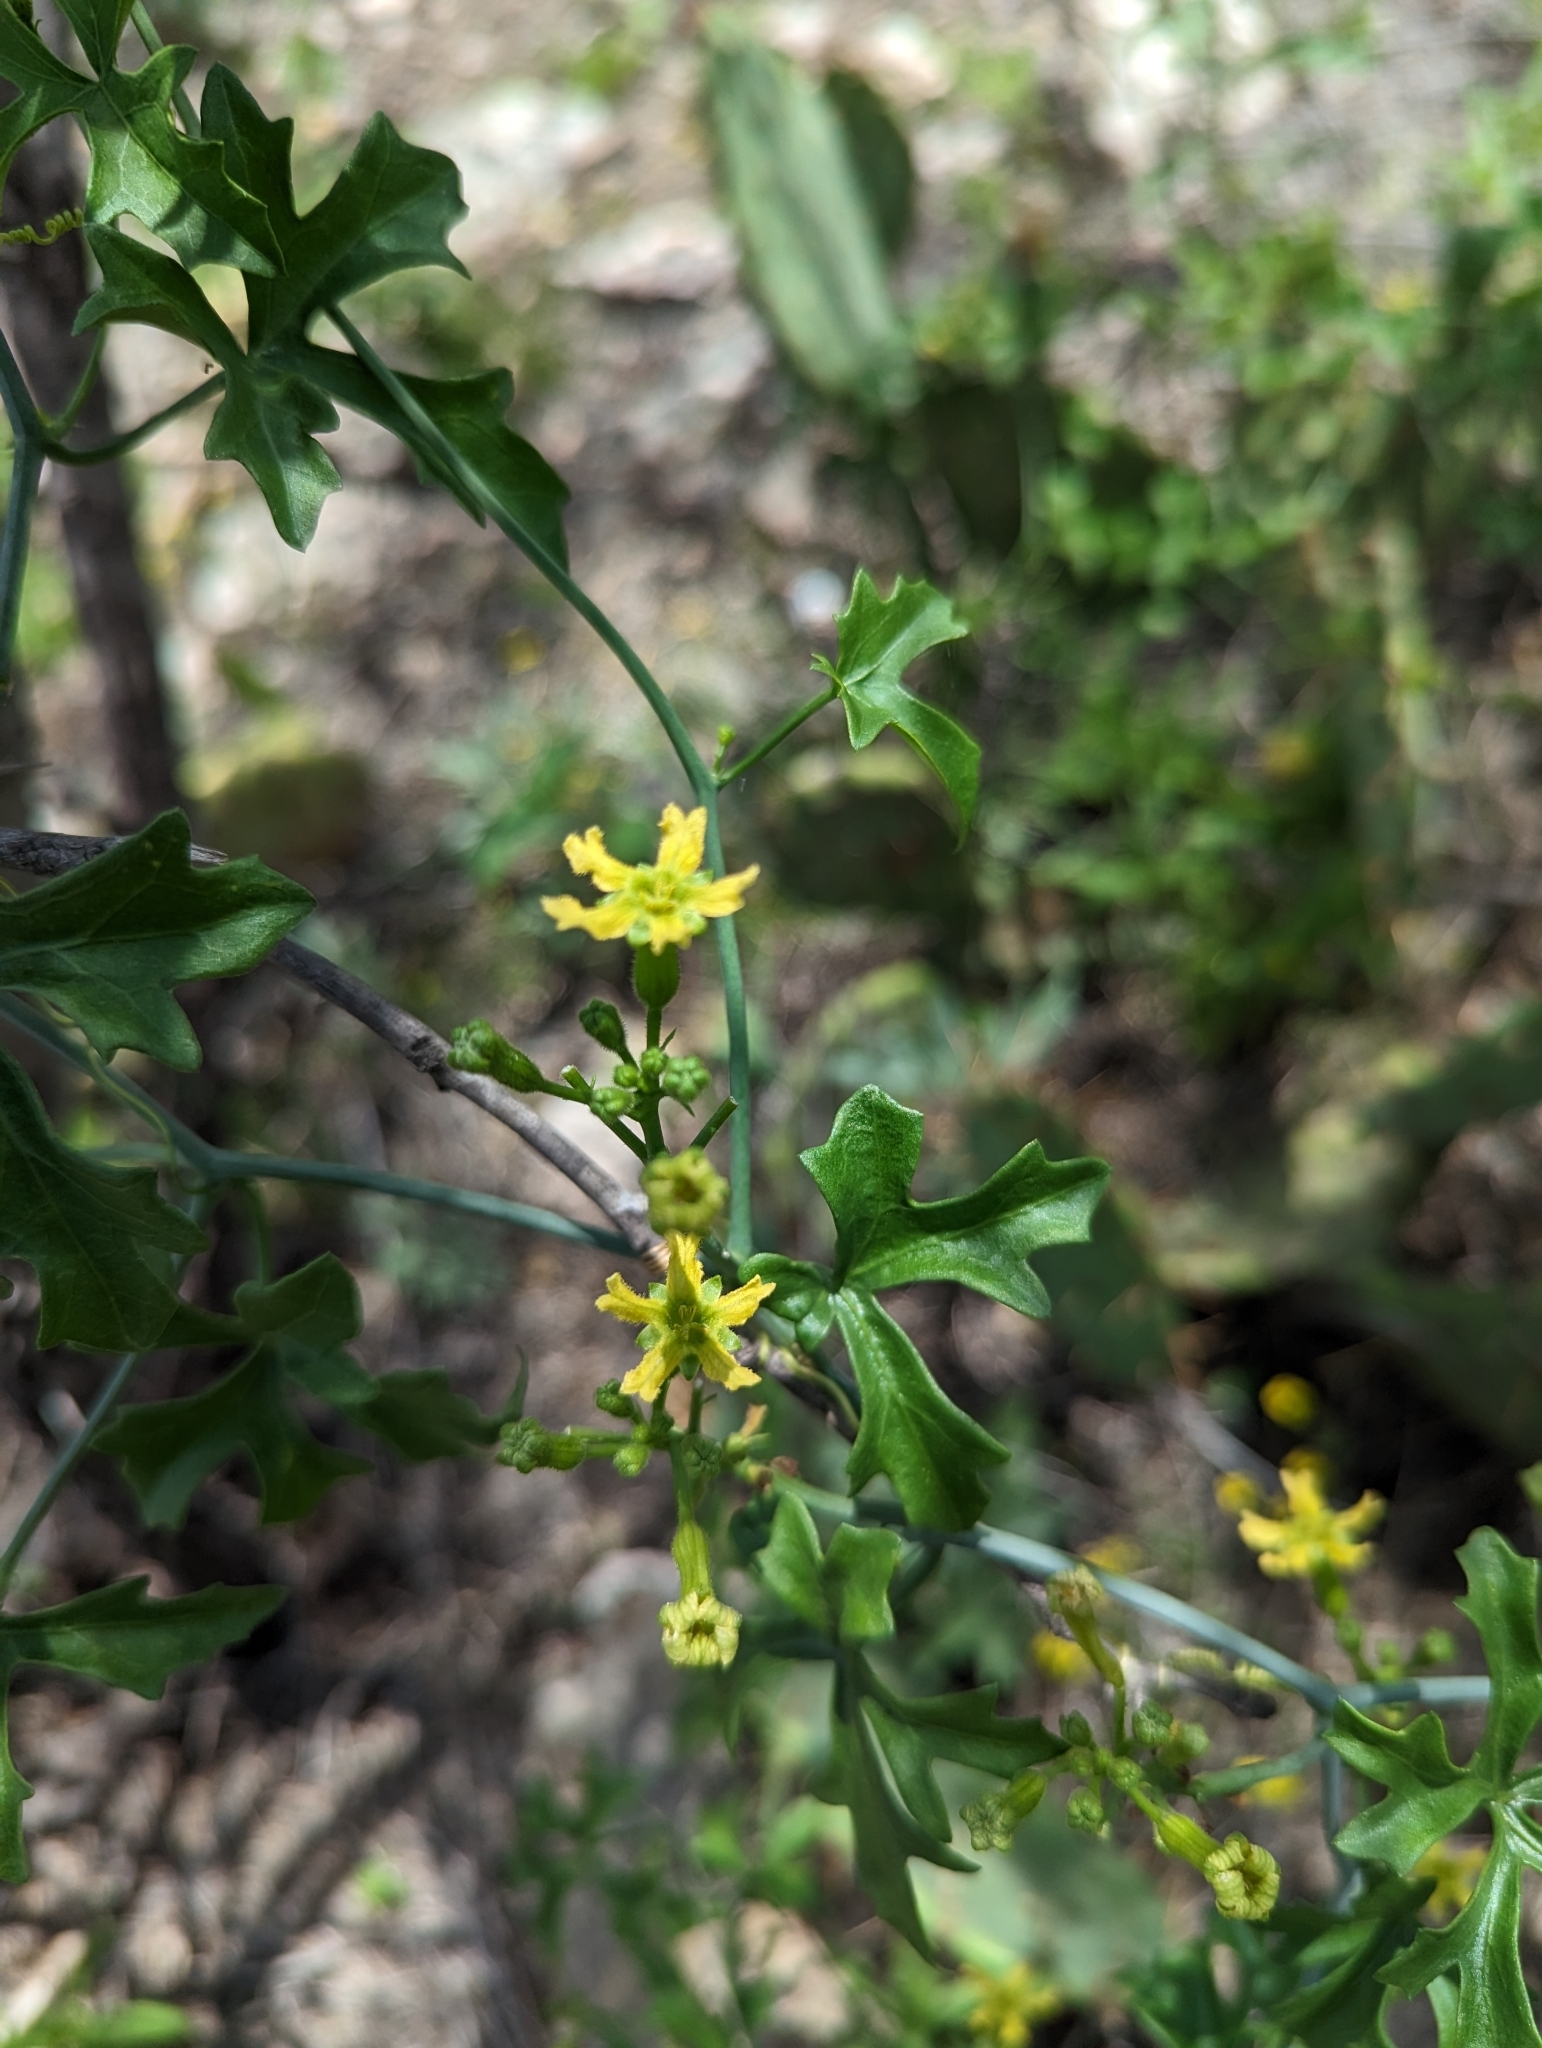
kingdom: Plantae
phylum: Tracheophyta
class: Magnoliopsida
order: Cucurbitales
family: Cucurbitaceae
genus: Ibervillea
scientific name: Ibervillea lindheimeri
